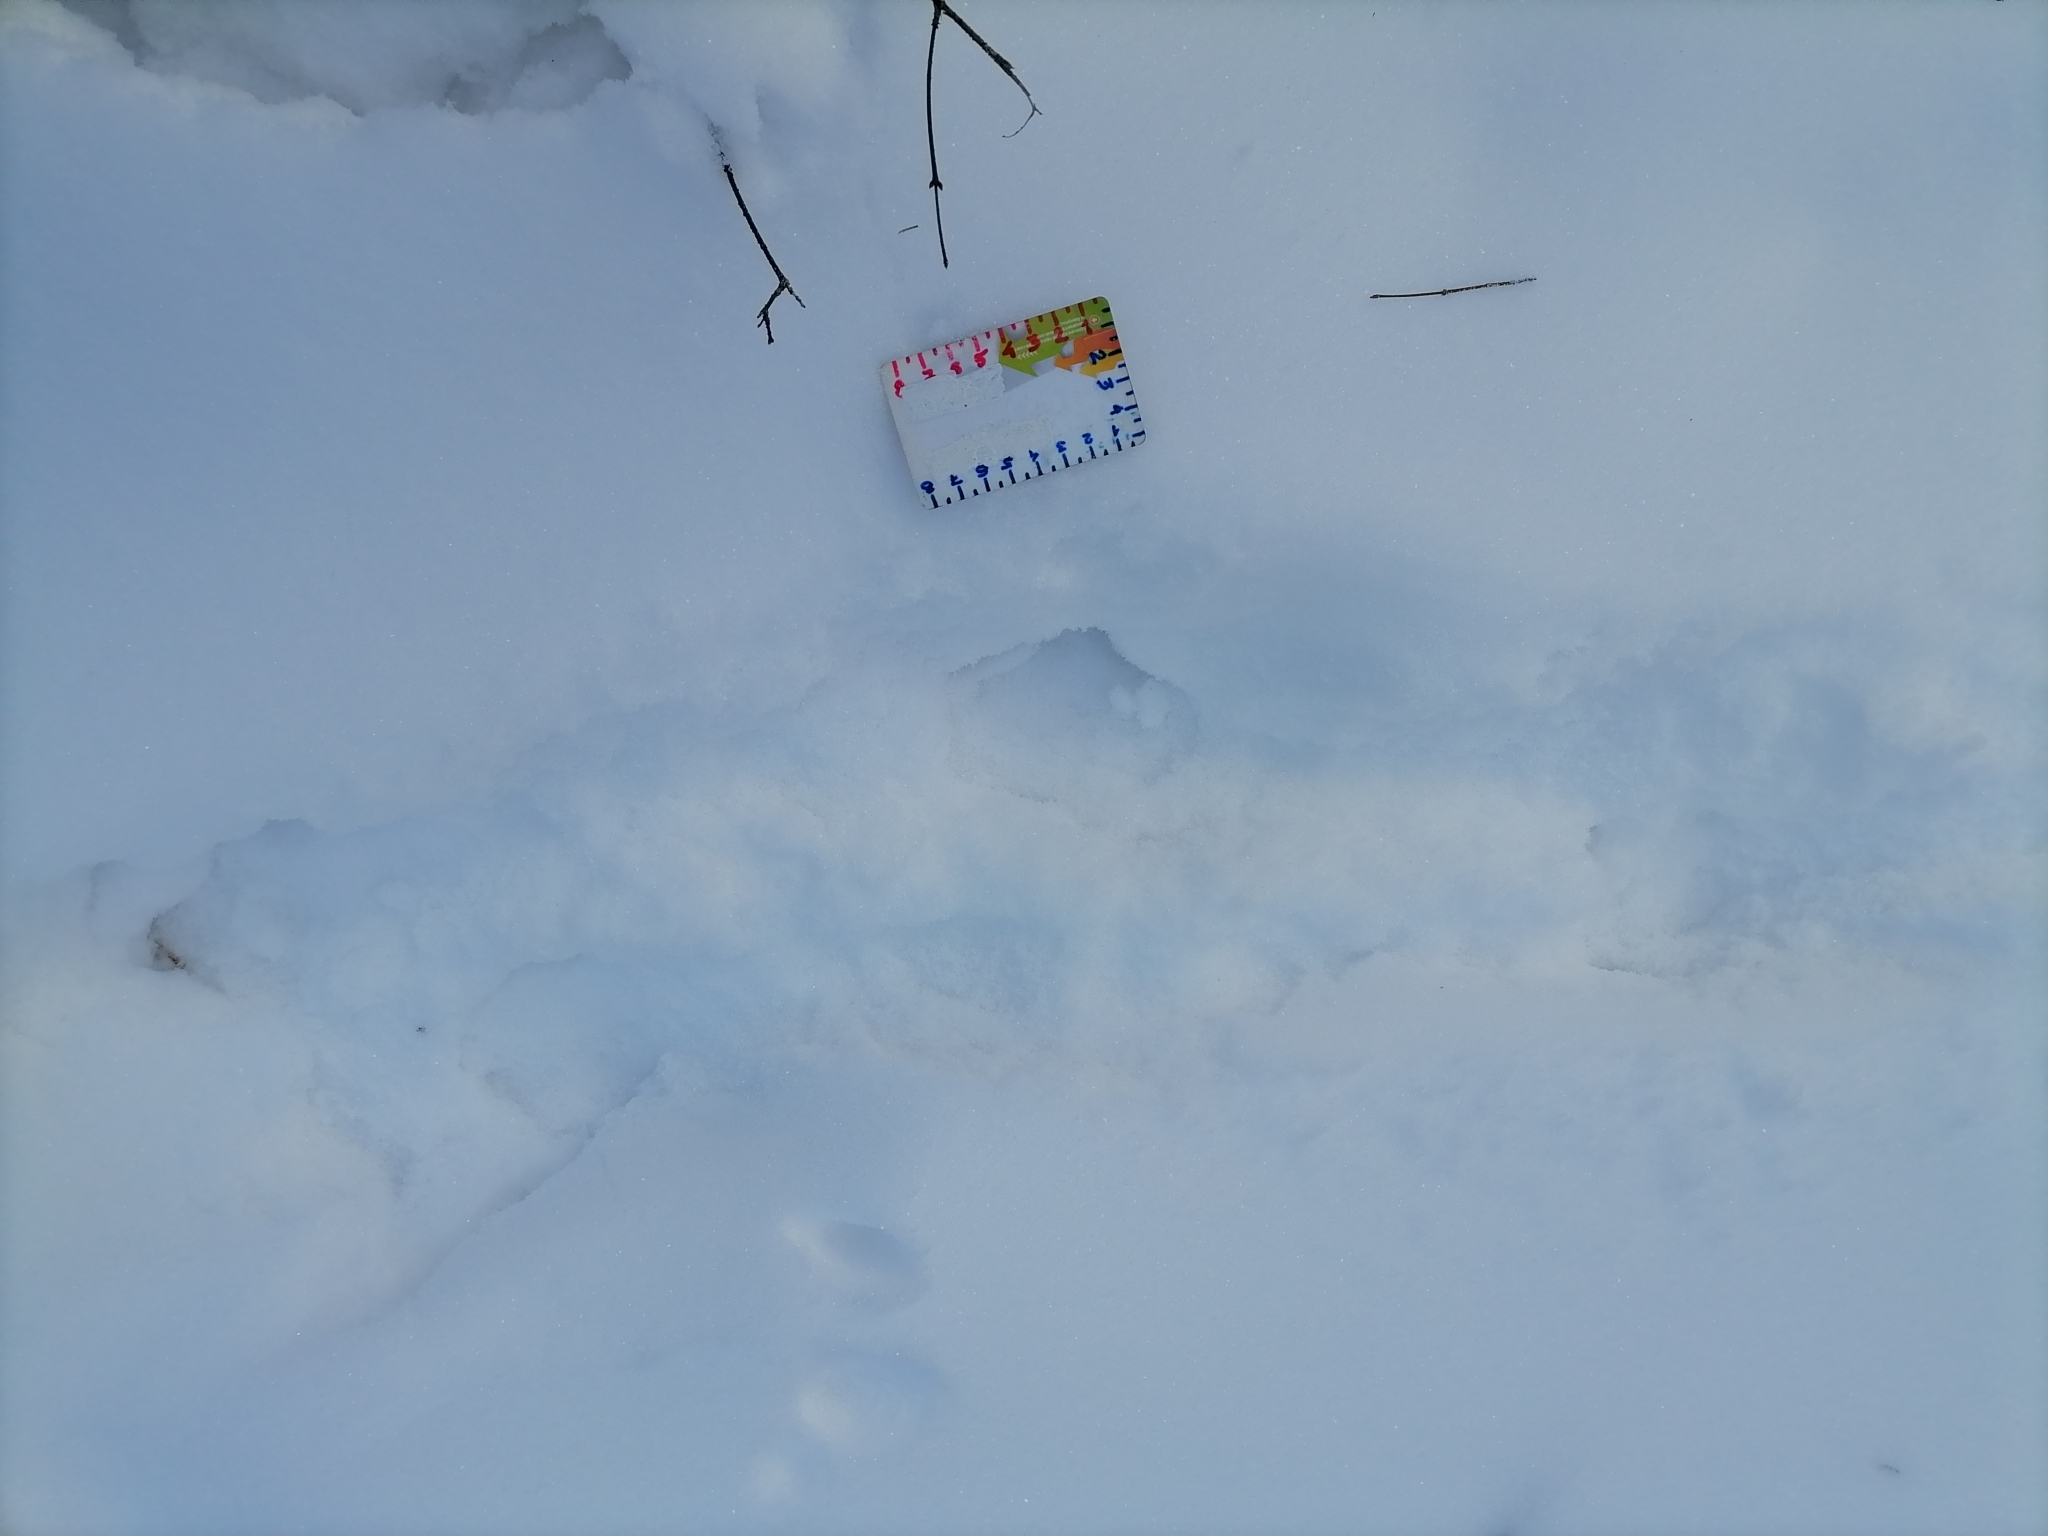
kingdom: Animalia
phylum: Chordata
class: Aves
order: Galliformes
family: Phasianidae
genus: Tetrao
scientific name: Tetrao urogallus
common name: Western capercaillie
